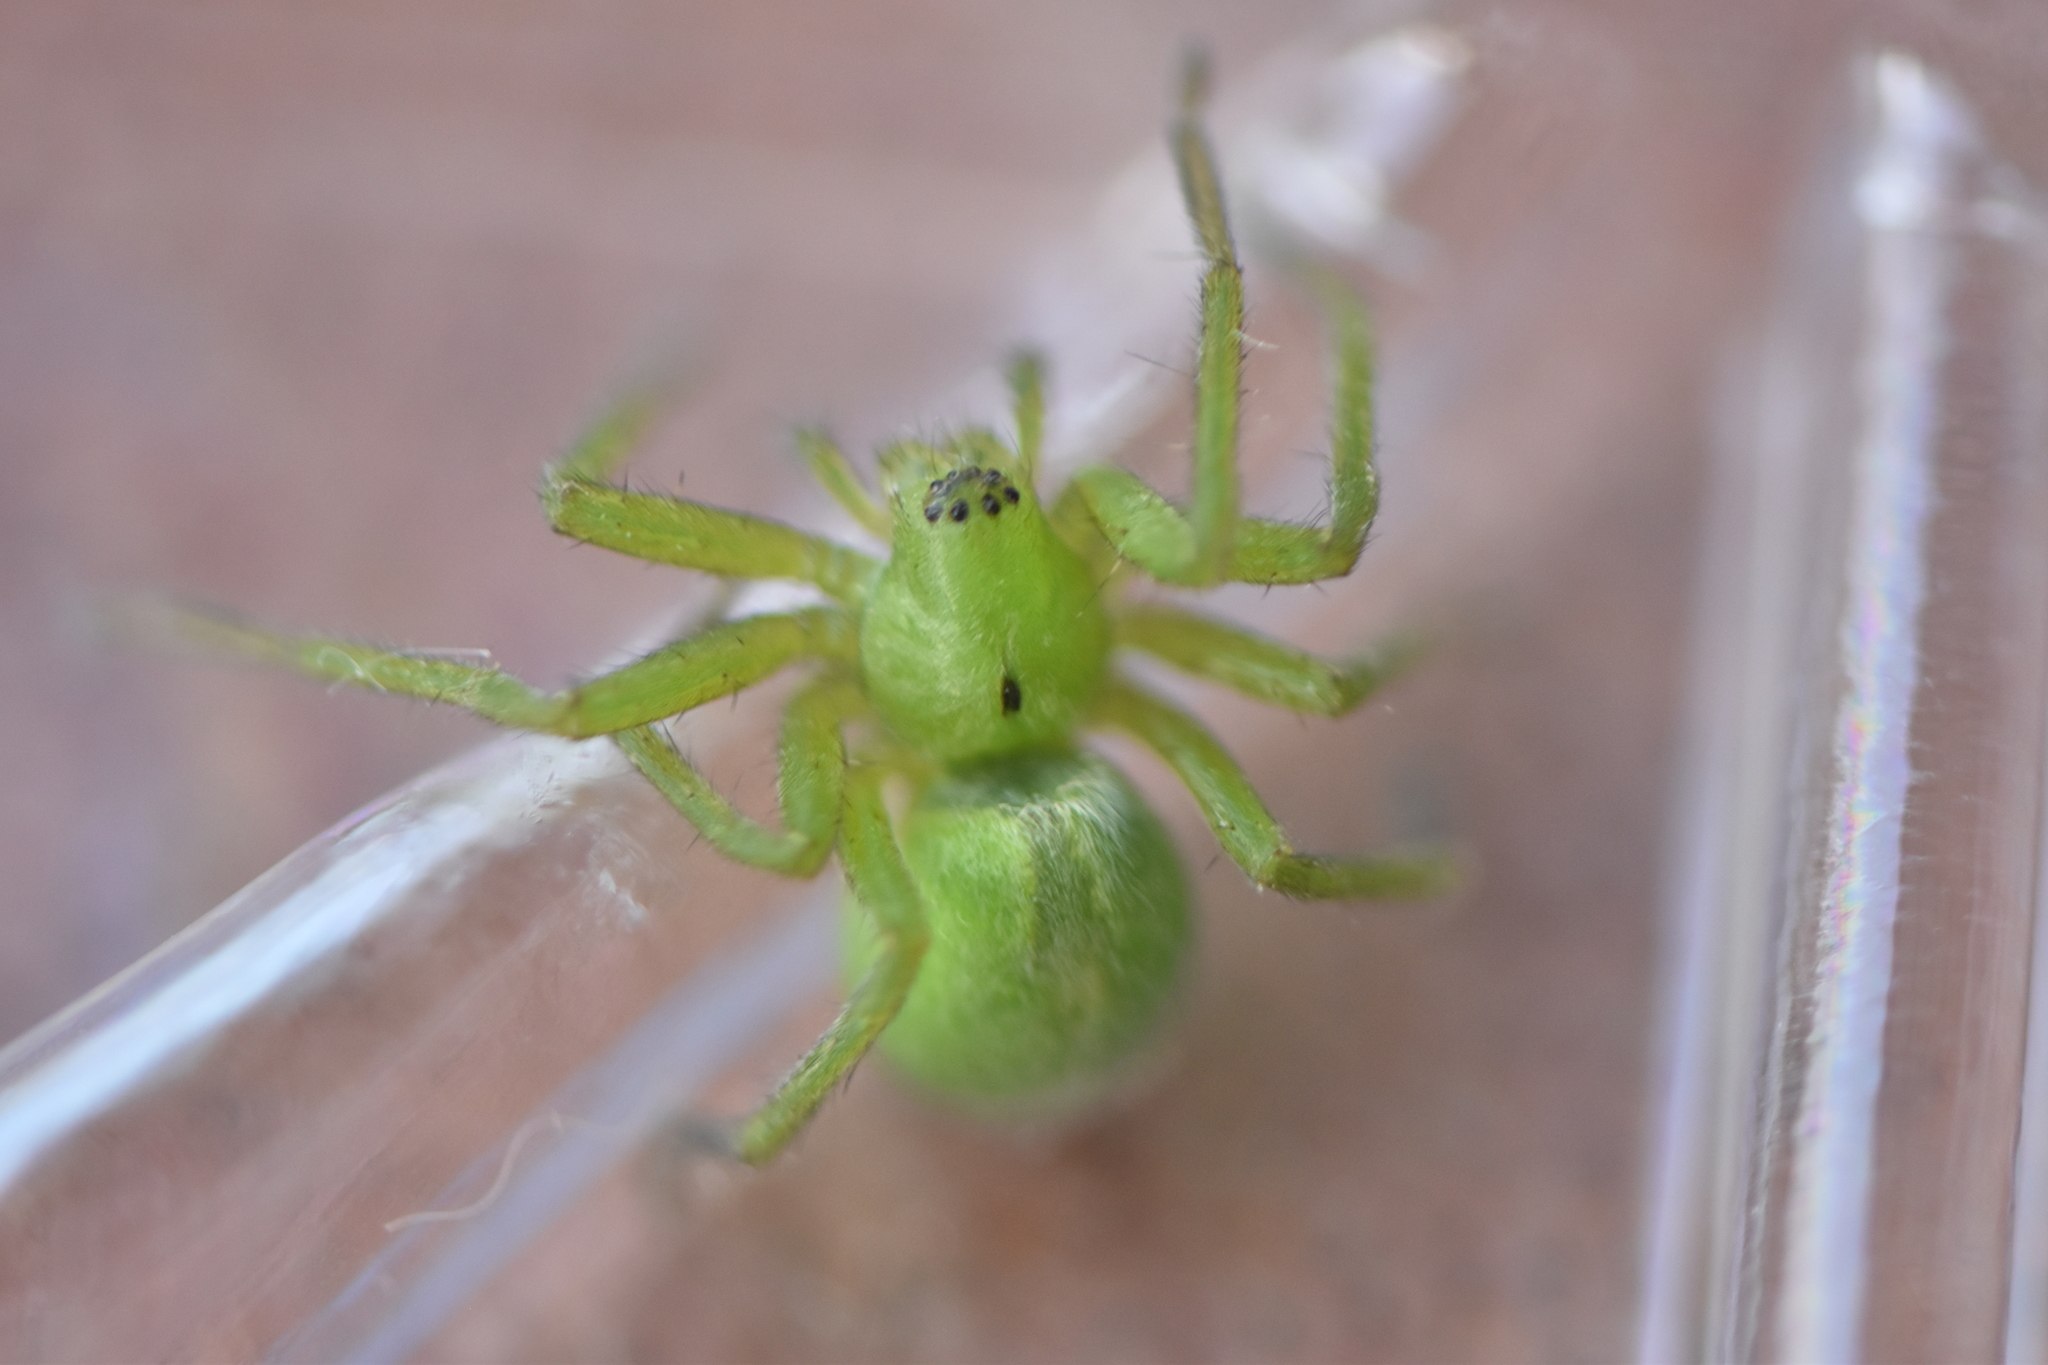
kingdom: Animalia
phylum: Arthropoda
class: Arachnida
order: Araneae
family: Sparassidae
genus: Micrommata
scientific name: Micrommata ligurina
